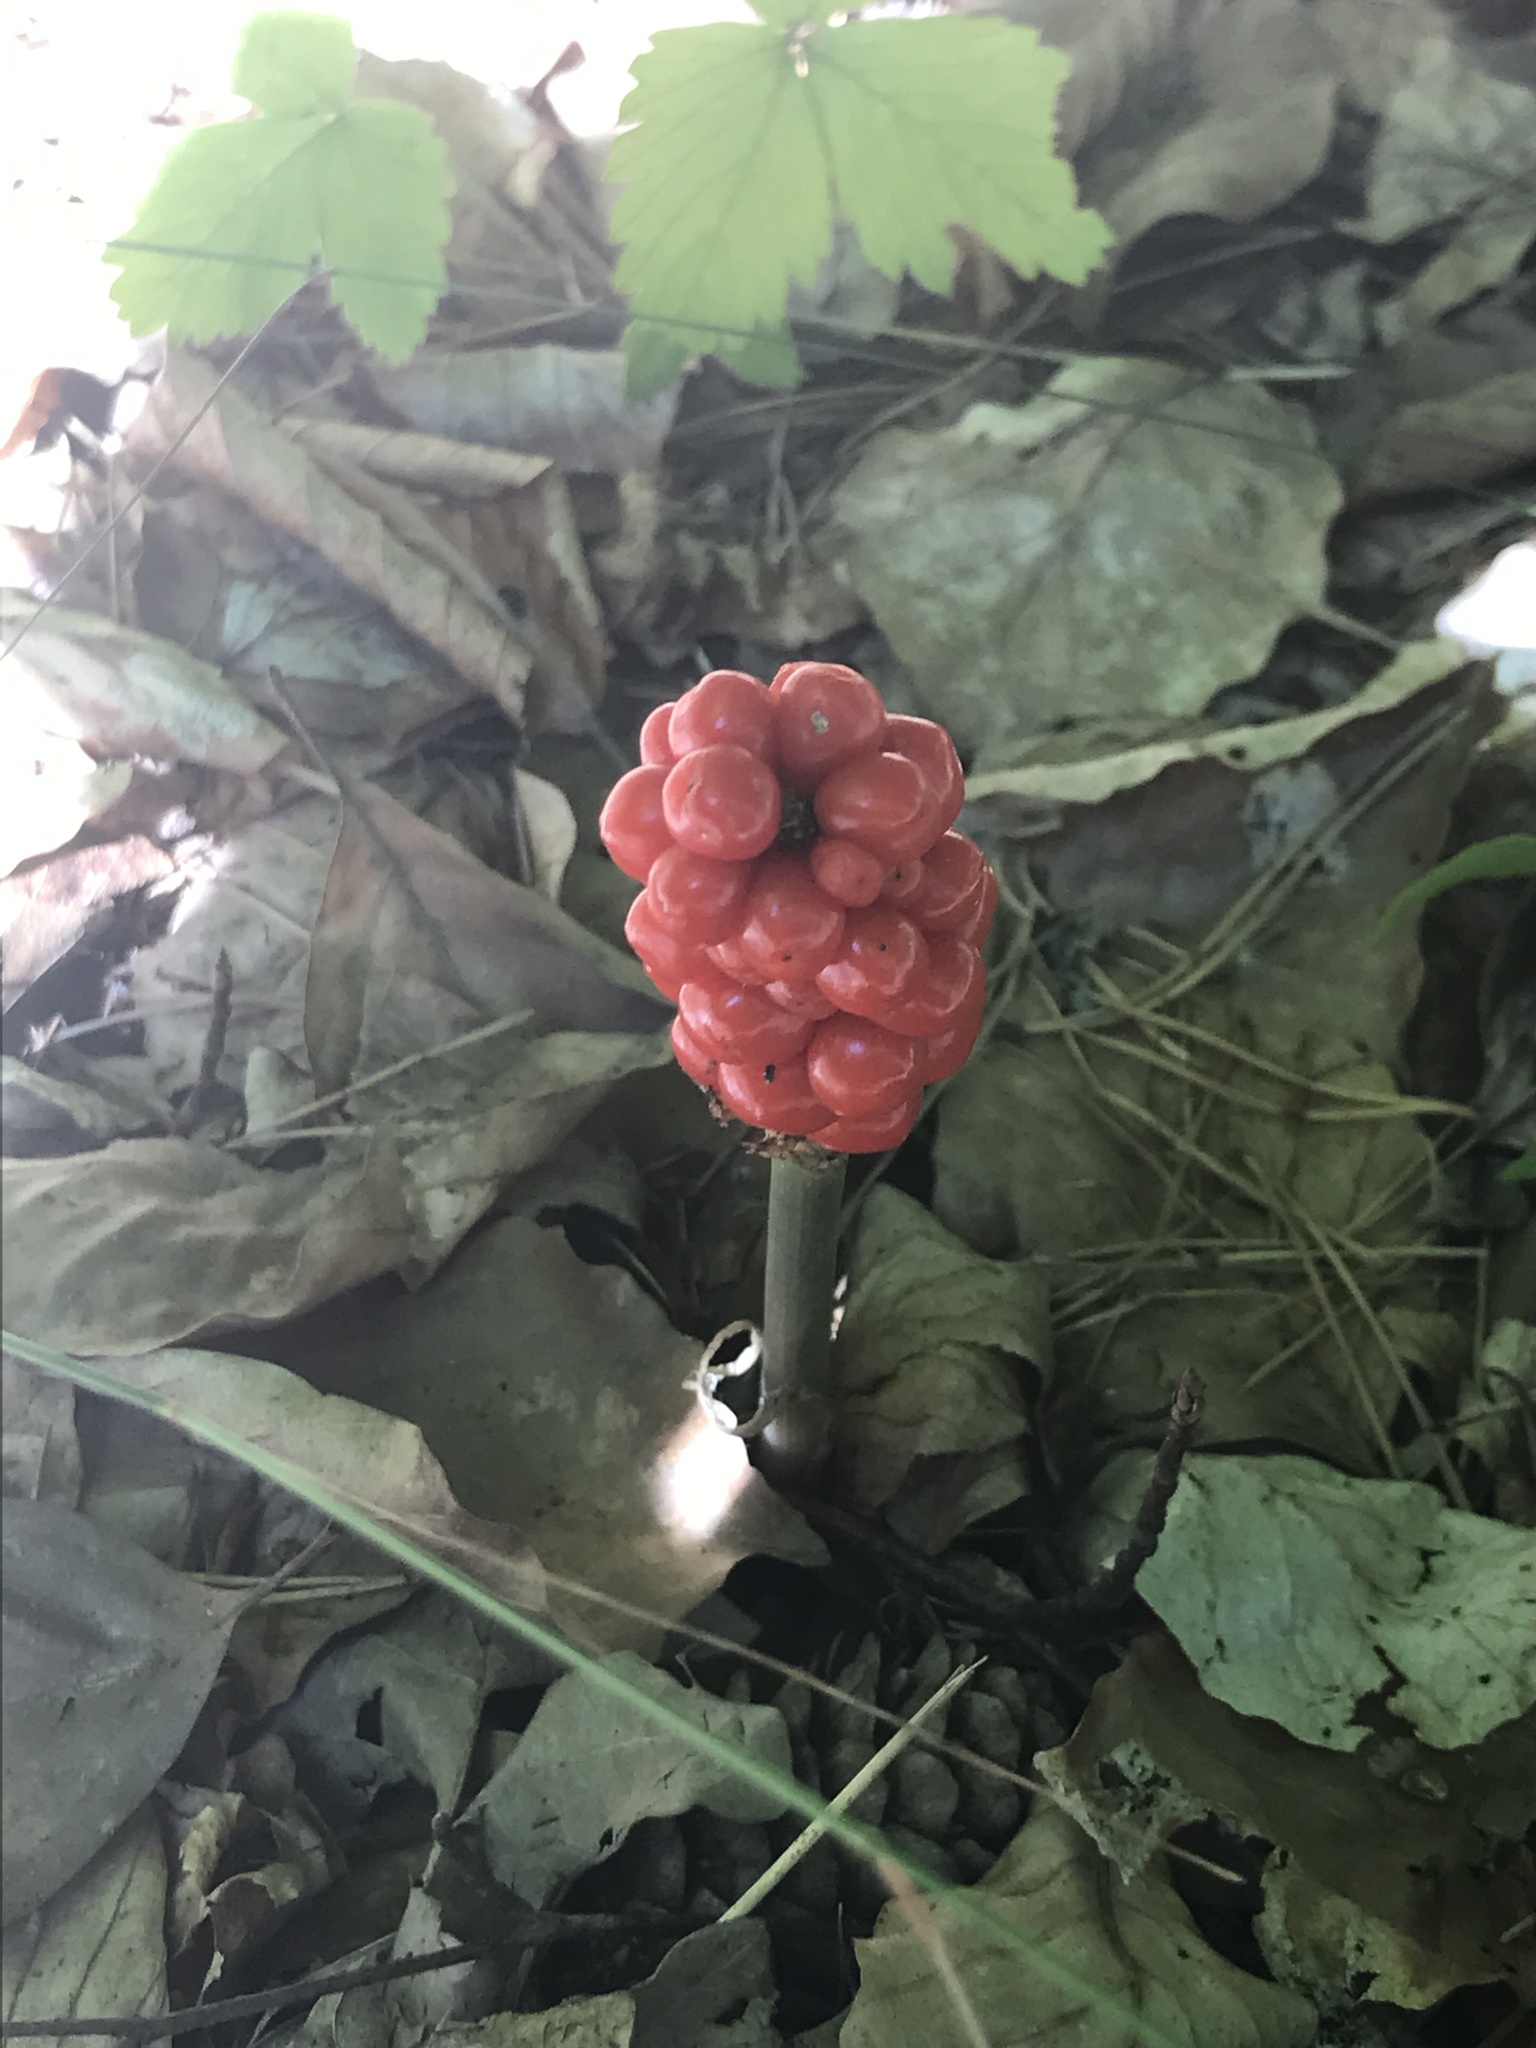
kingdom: Plantae
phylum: Tracheophyta
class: Liliopsida
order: Alismatales
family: Araceae
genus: Arum
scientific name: Arum maculatum
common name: Lords-and-ladies
